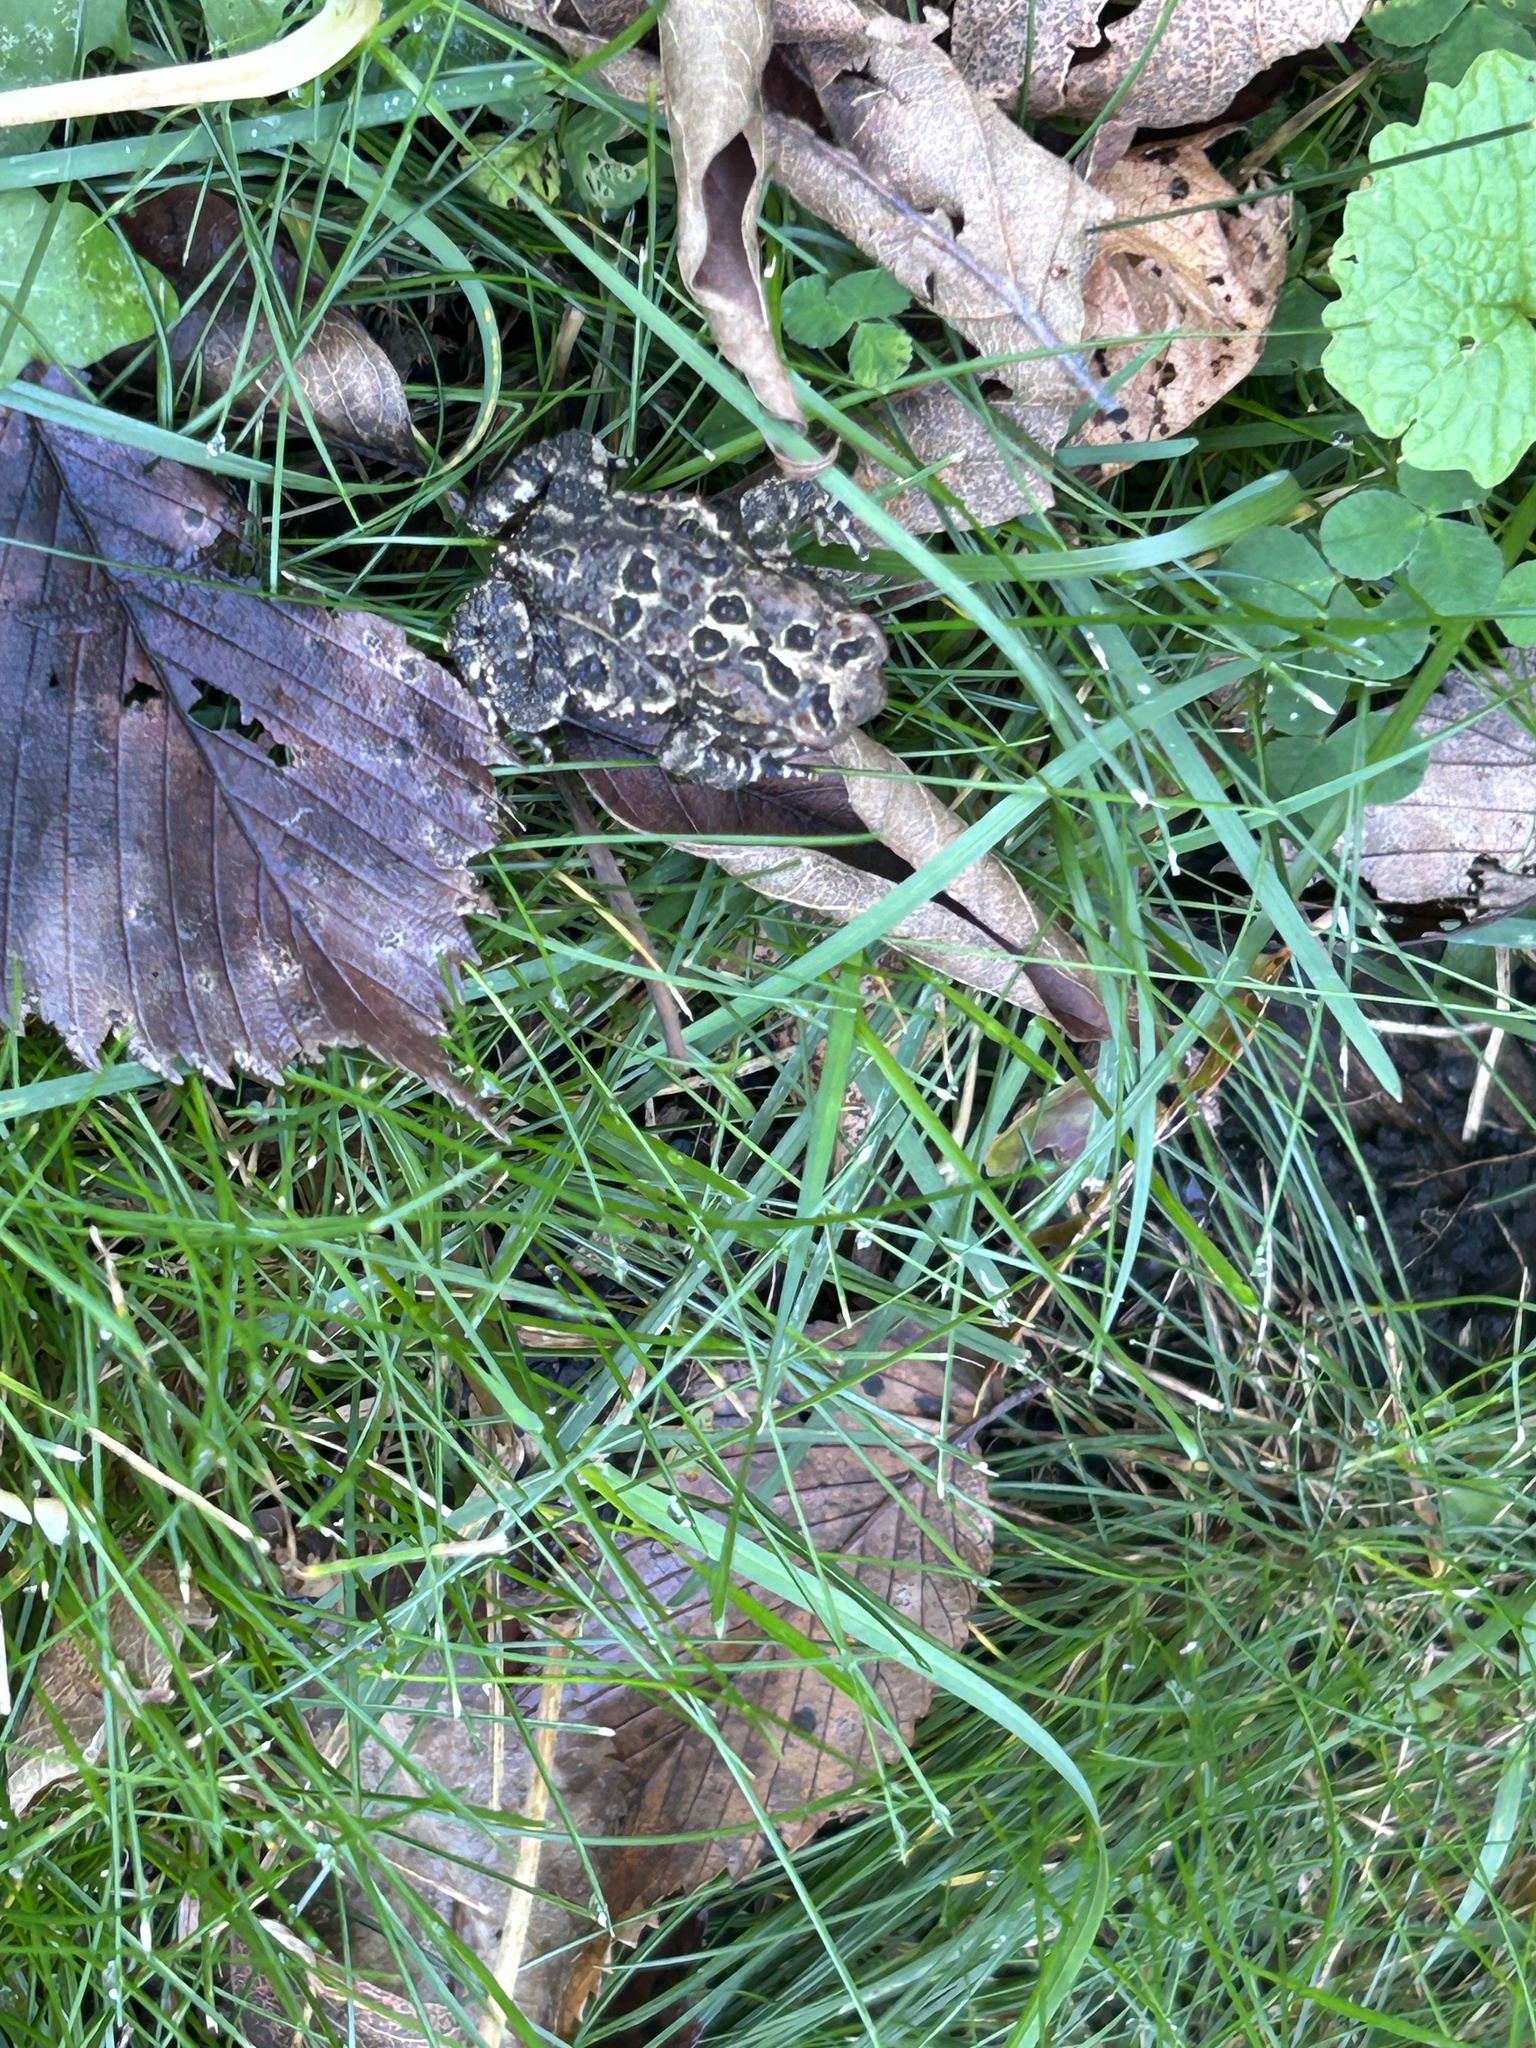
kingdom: Animalia
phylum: Chordata
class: Amphibia
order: Anura
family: Bufonidae
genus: Anaxyrus
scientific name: Anaxyrus americanus
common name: American toad
